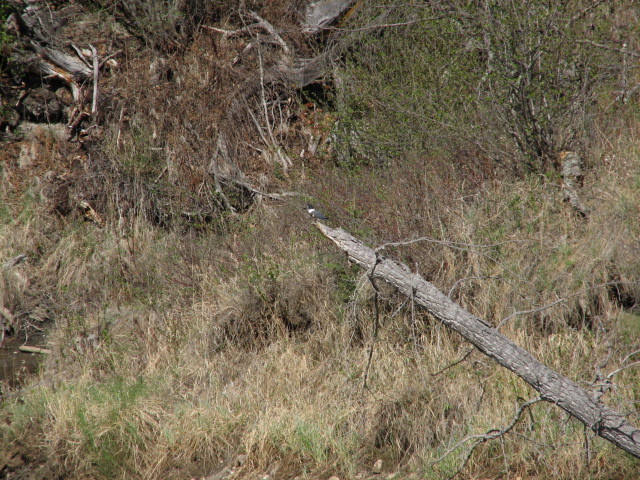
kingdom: Animalia
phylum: Chordata
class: Aves
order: Coraciiformes
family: Alcedinidae
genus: Megaceryle
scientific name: Megaceryle alcyon
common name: Belted kingfisher
